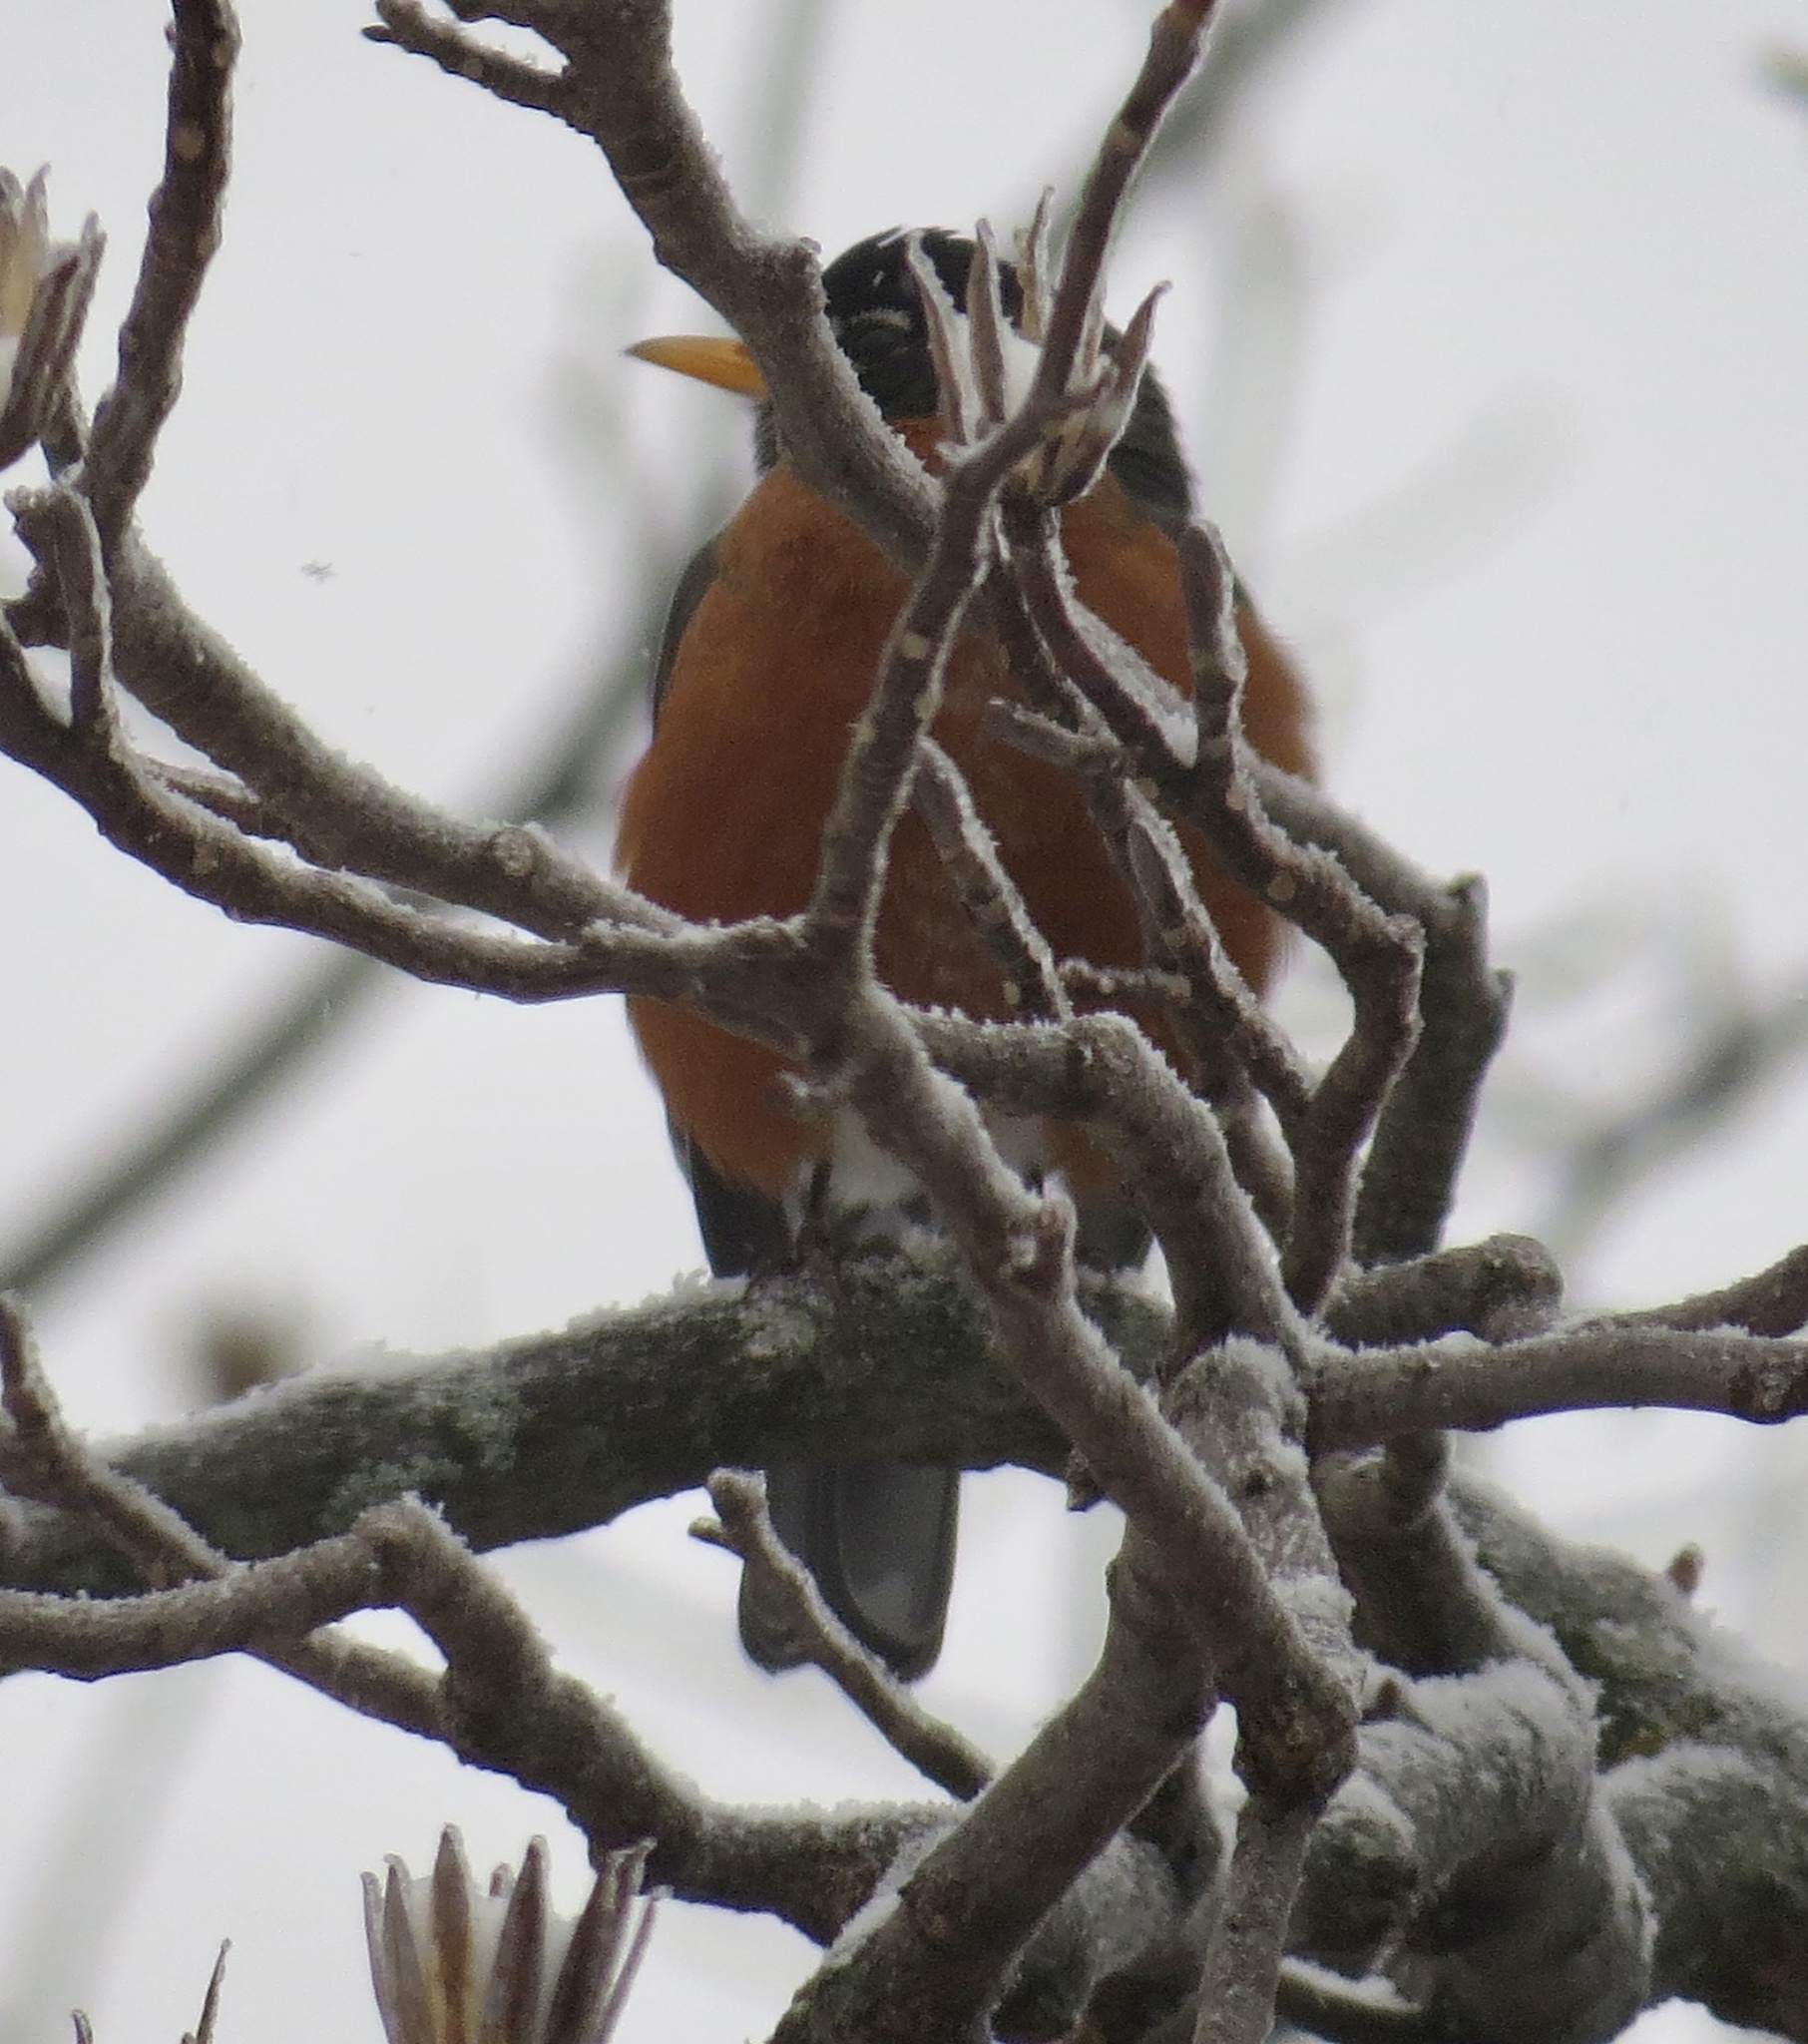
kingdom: Animalia
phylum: Chordata
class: Aves
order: Passeriformes
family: Turdidae
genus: Turdus
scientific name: Turdus migratorius
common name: American robin
